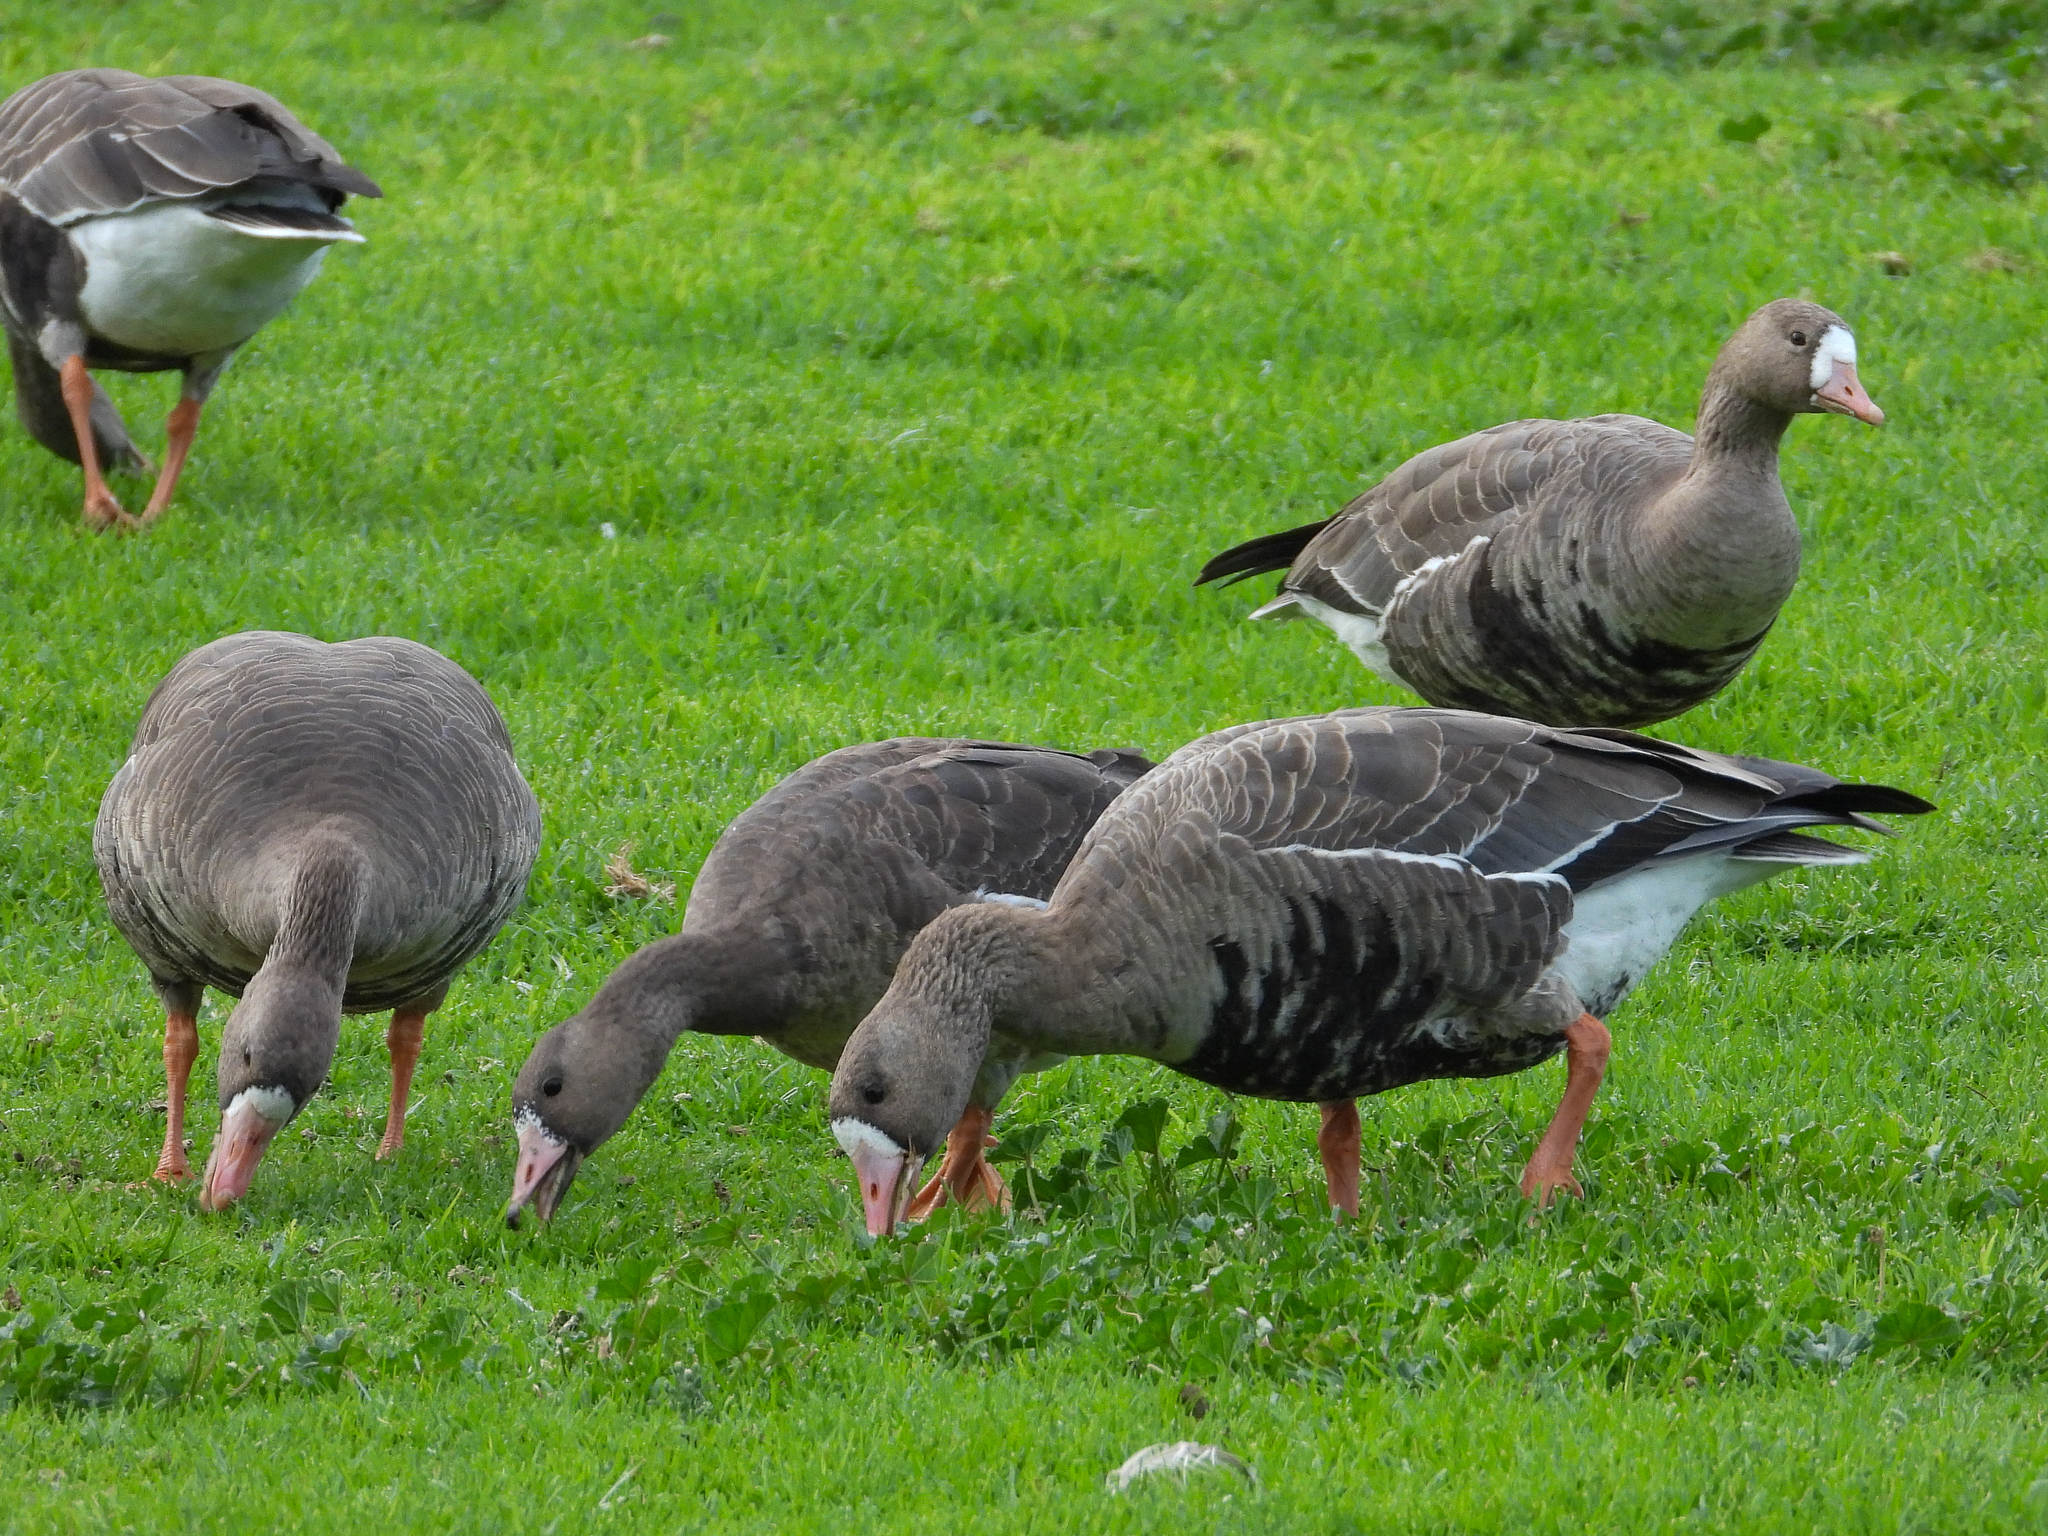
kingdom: Animalia
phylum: Chordata
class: Aves
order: Anseriformes
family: Anatidae
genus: Anser
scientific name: Anser albifrons
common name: Greater white-fronted goose
